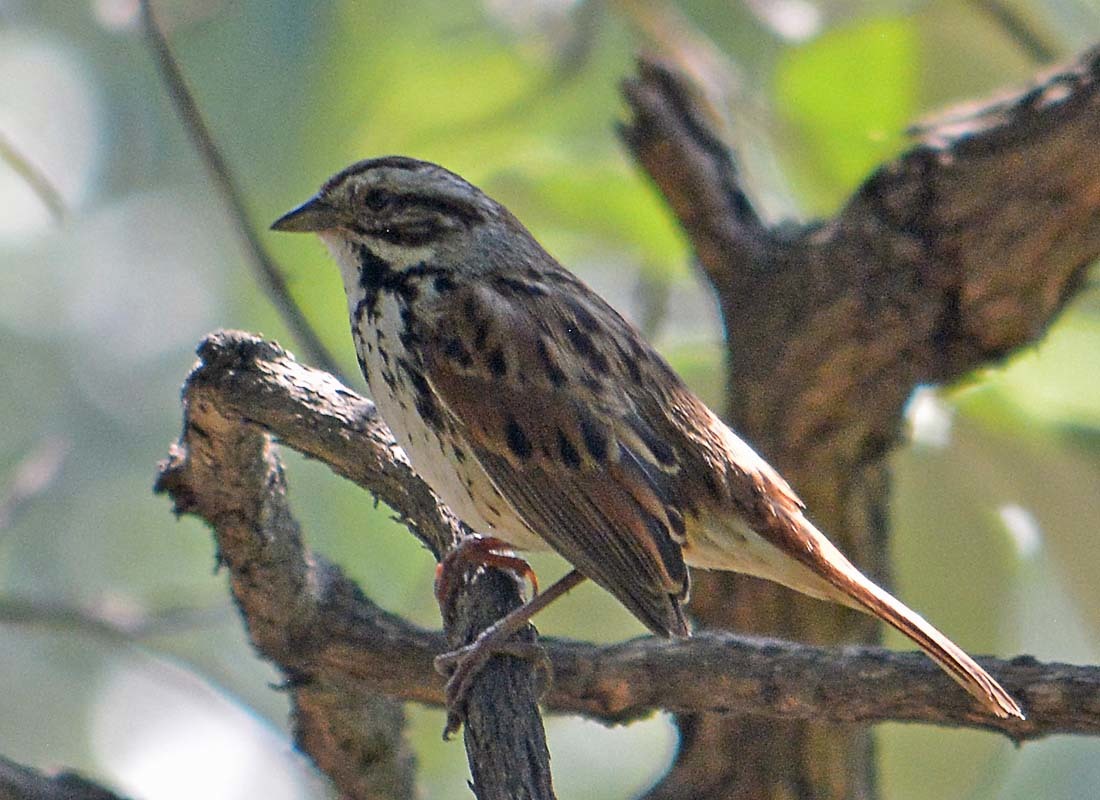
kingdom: Animalia
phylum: Chordata
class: Aves
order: Passeriformes
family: Passerellidae
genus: Melospiza
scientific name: Melospiza melodia
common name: Song sparrow
